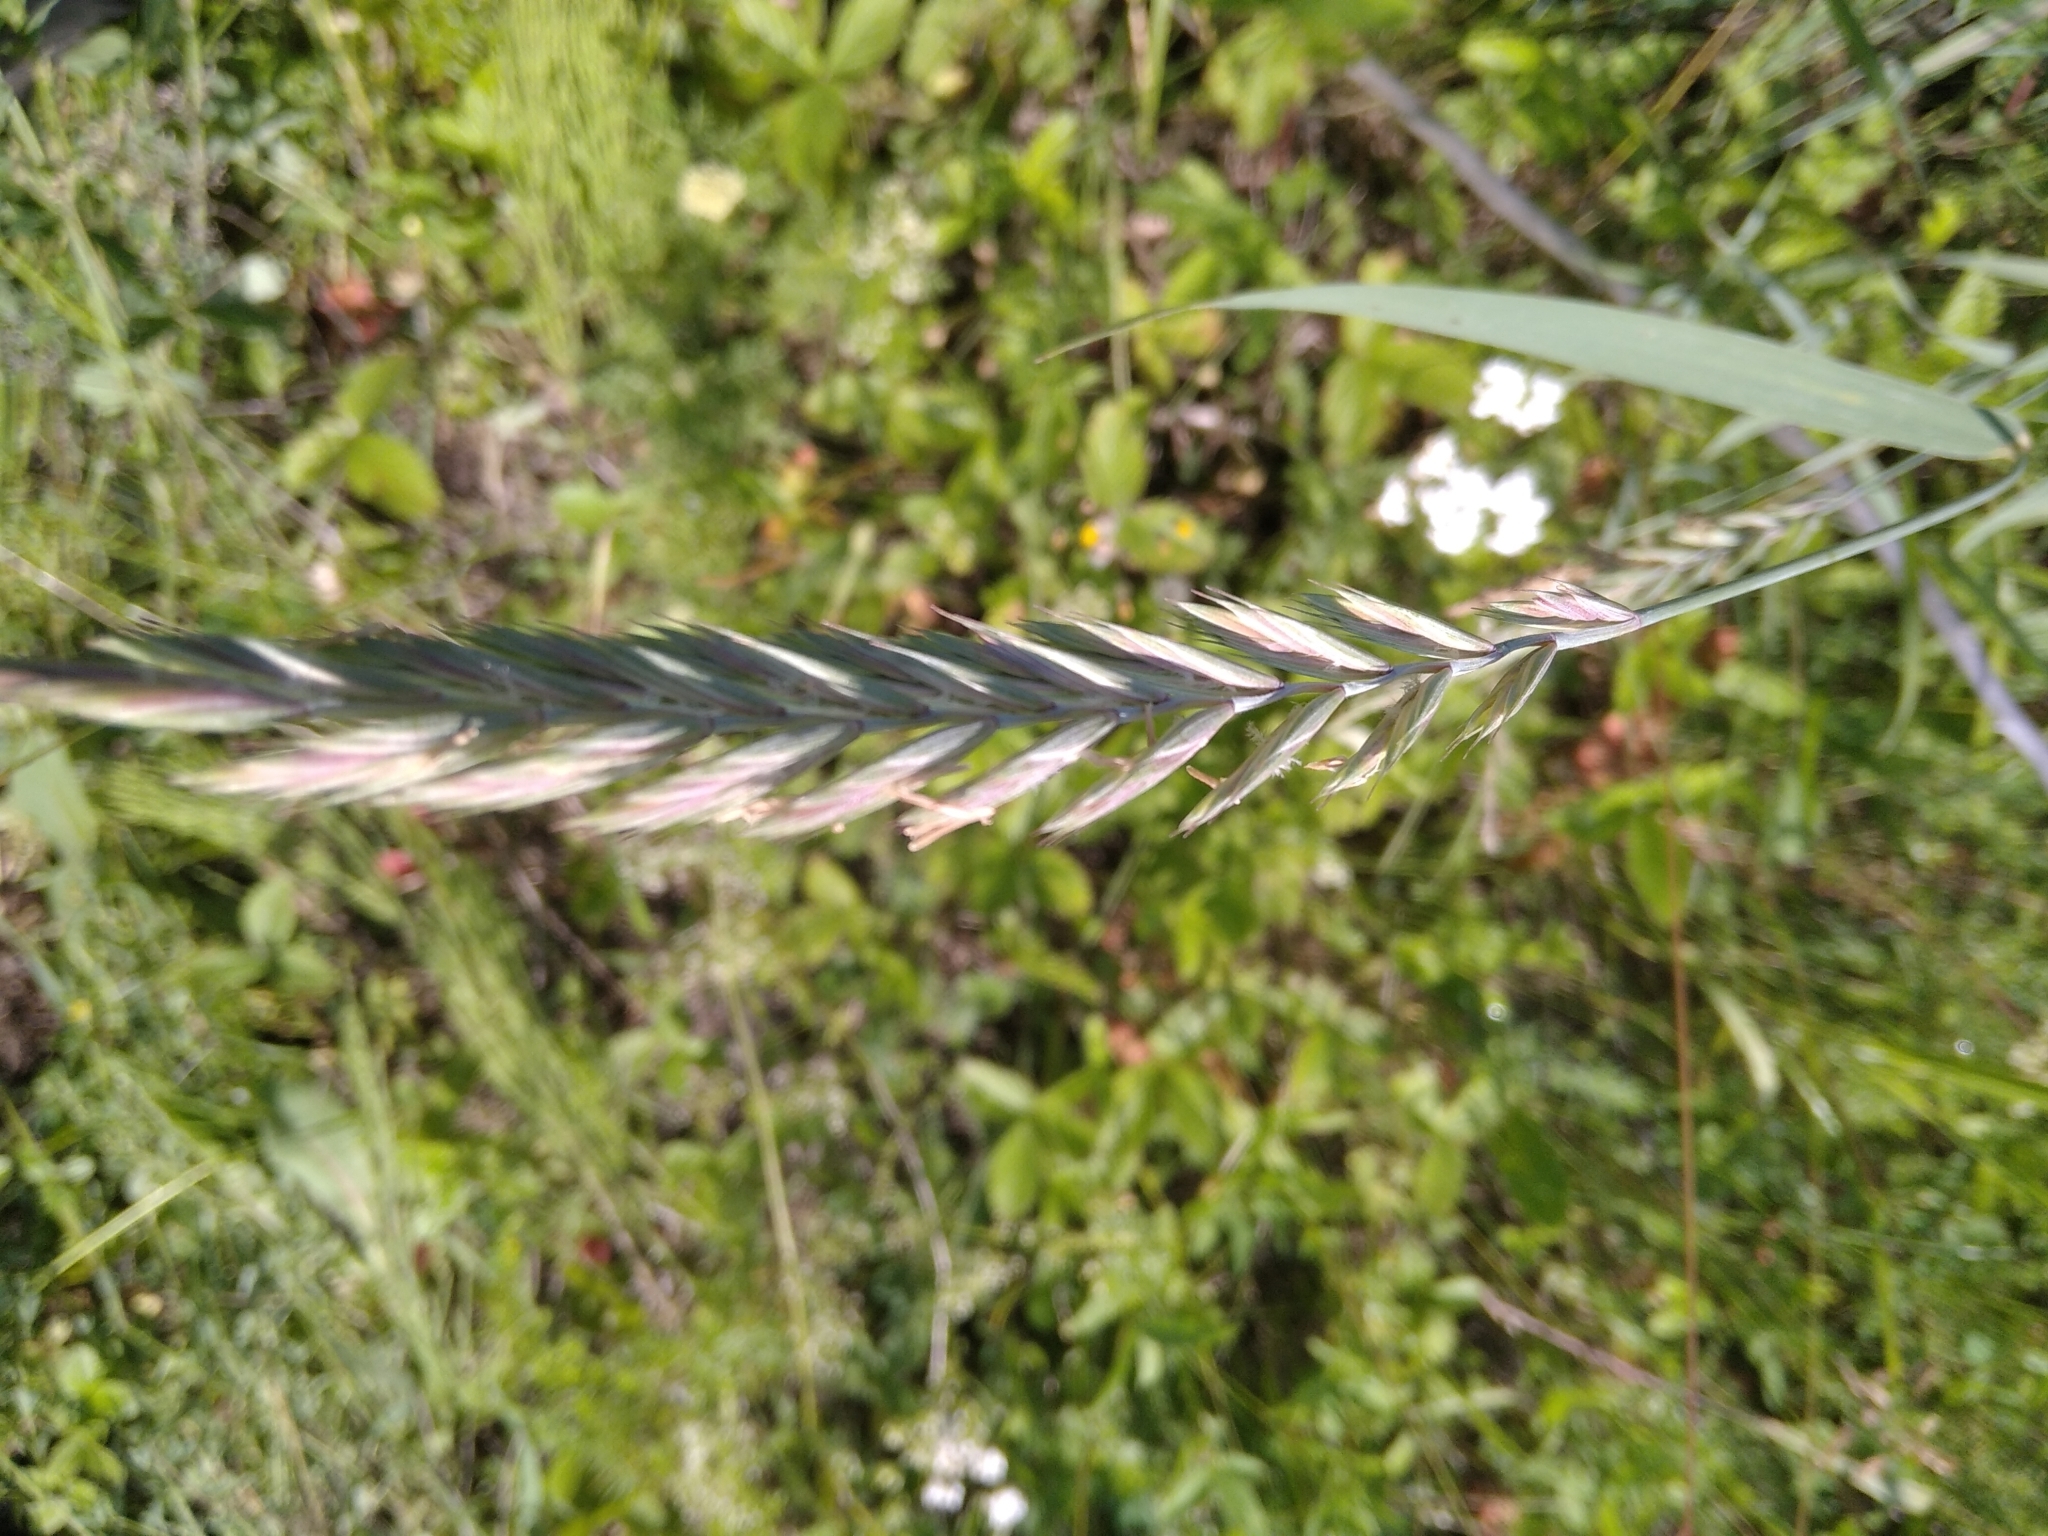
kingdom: Plantae
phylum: Tracheophyta
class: Liliopsida
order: Poales
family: Poaceae
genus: Elymus
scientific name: Elymus repens
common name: Quackgrass
